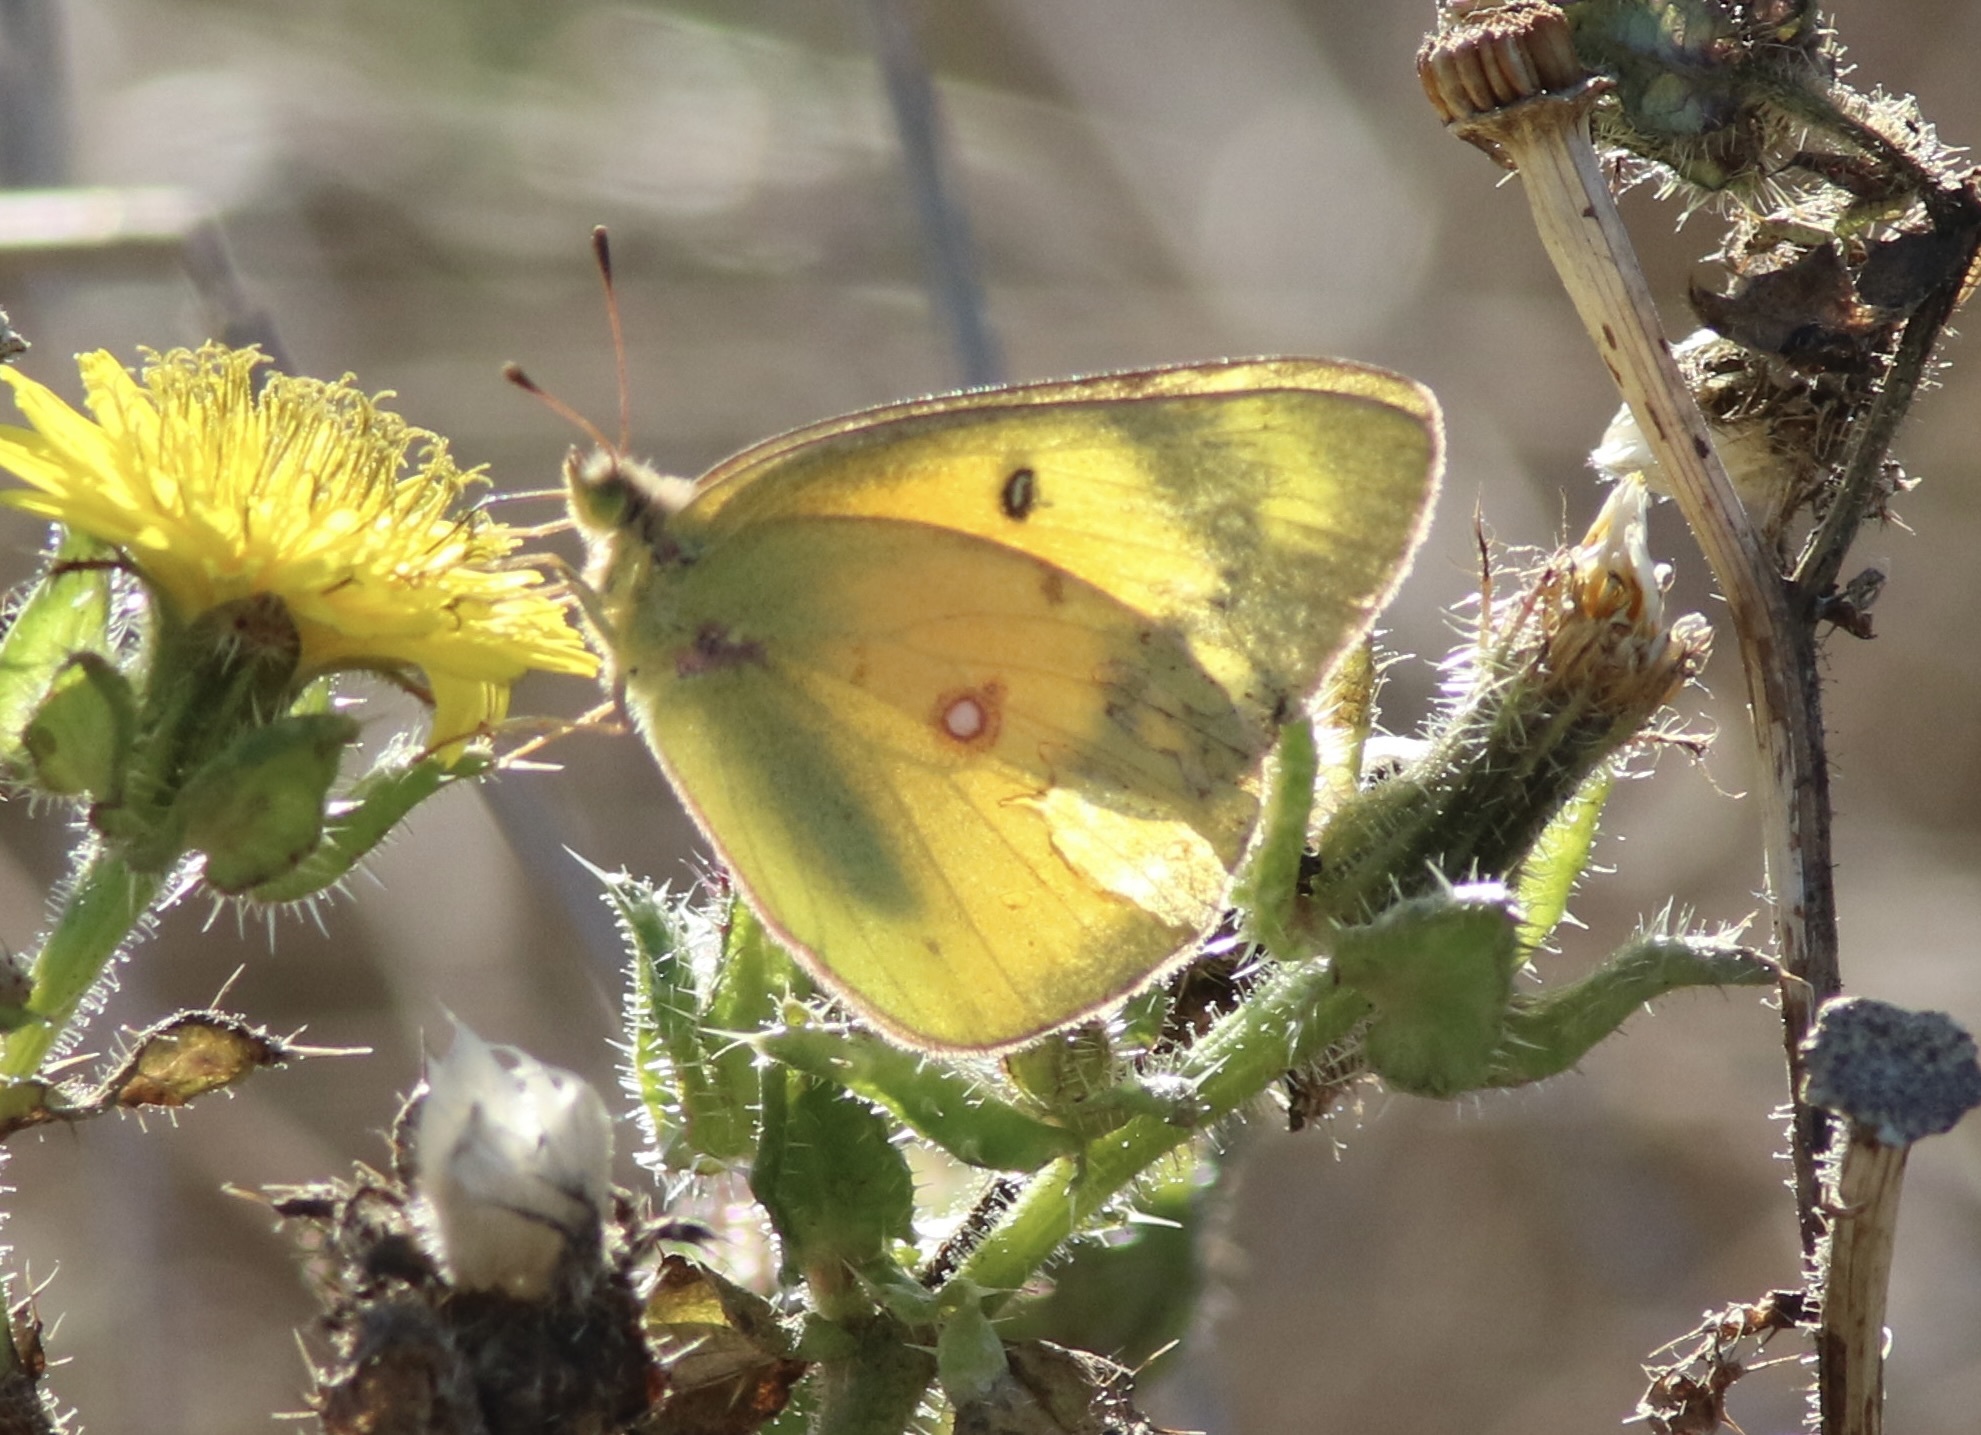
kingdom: Animalia
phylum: Arthropoda
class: Insecta
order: Lepidoptera
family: Pieridae
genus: Colias
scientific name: Colias eurytheme
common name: Alfalfa butterfly
